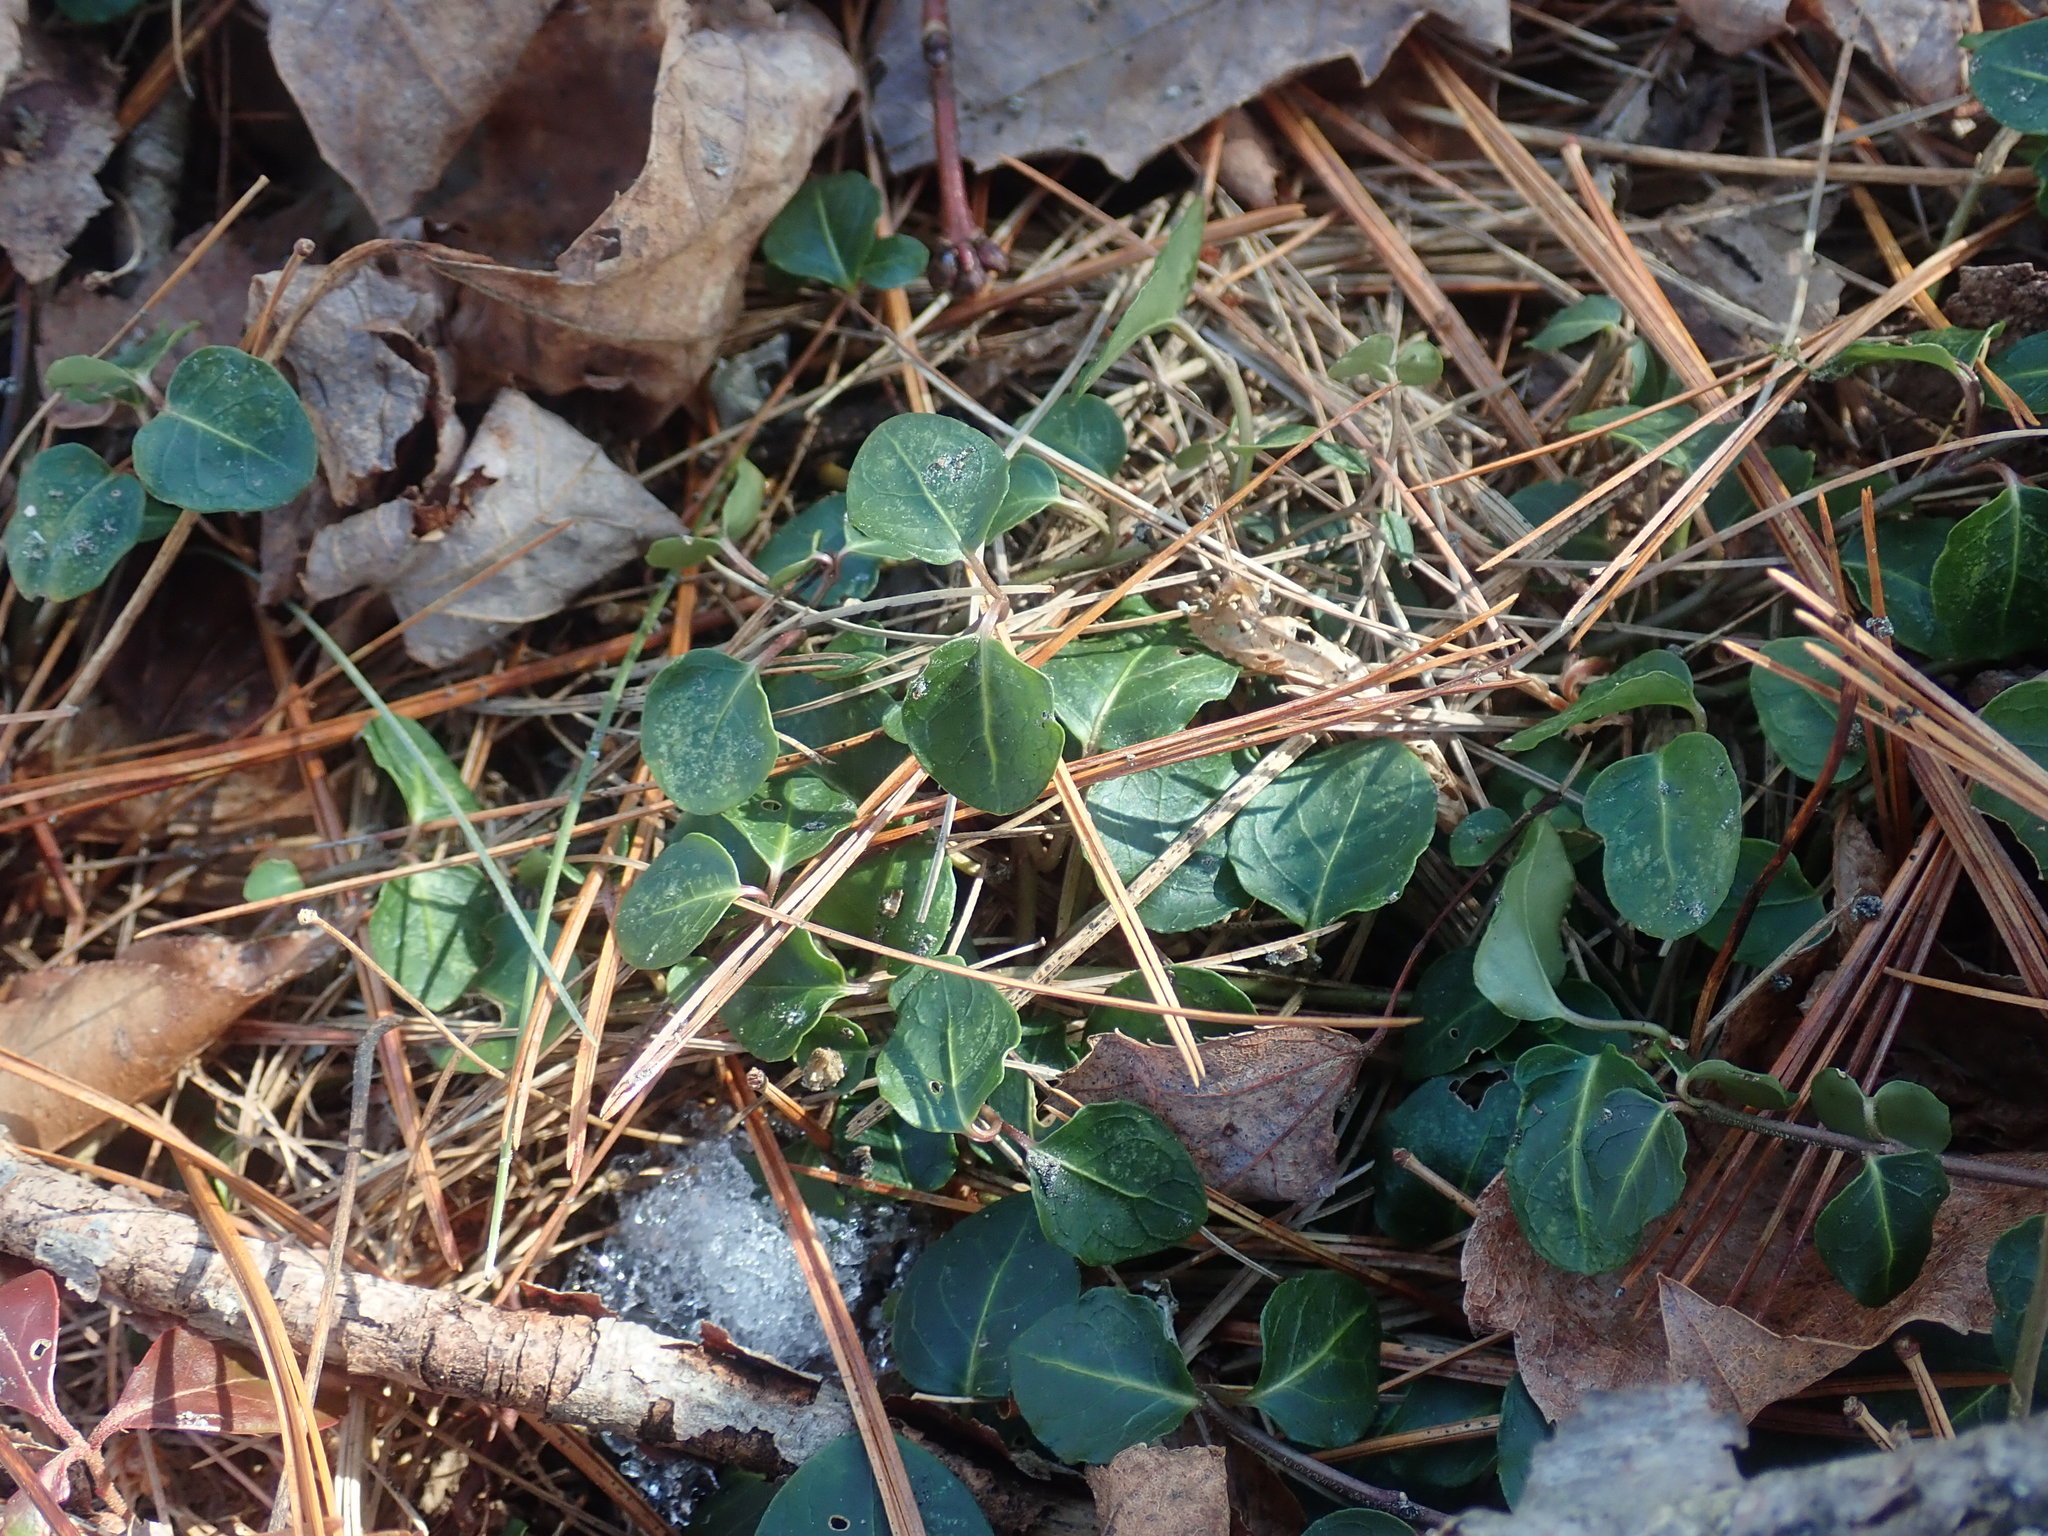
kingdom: Plantae
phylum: Tracheophyta
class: Magnoliopsida
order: Gentianales
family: Rubiaceae
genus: Mitchella
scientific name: Mitchella repens
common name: Partridge-berry
